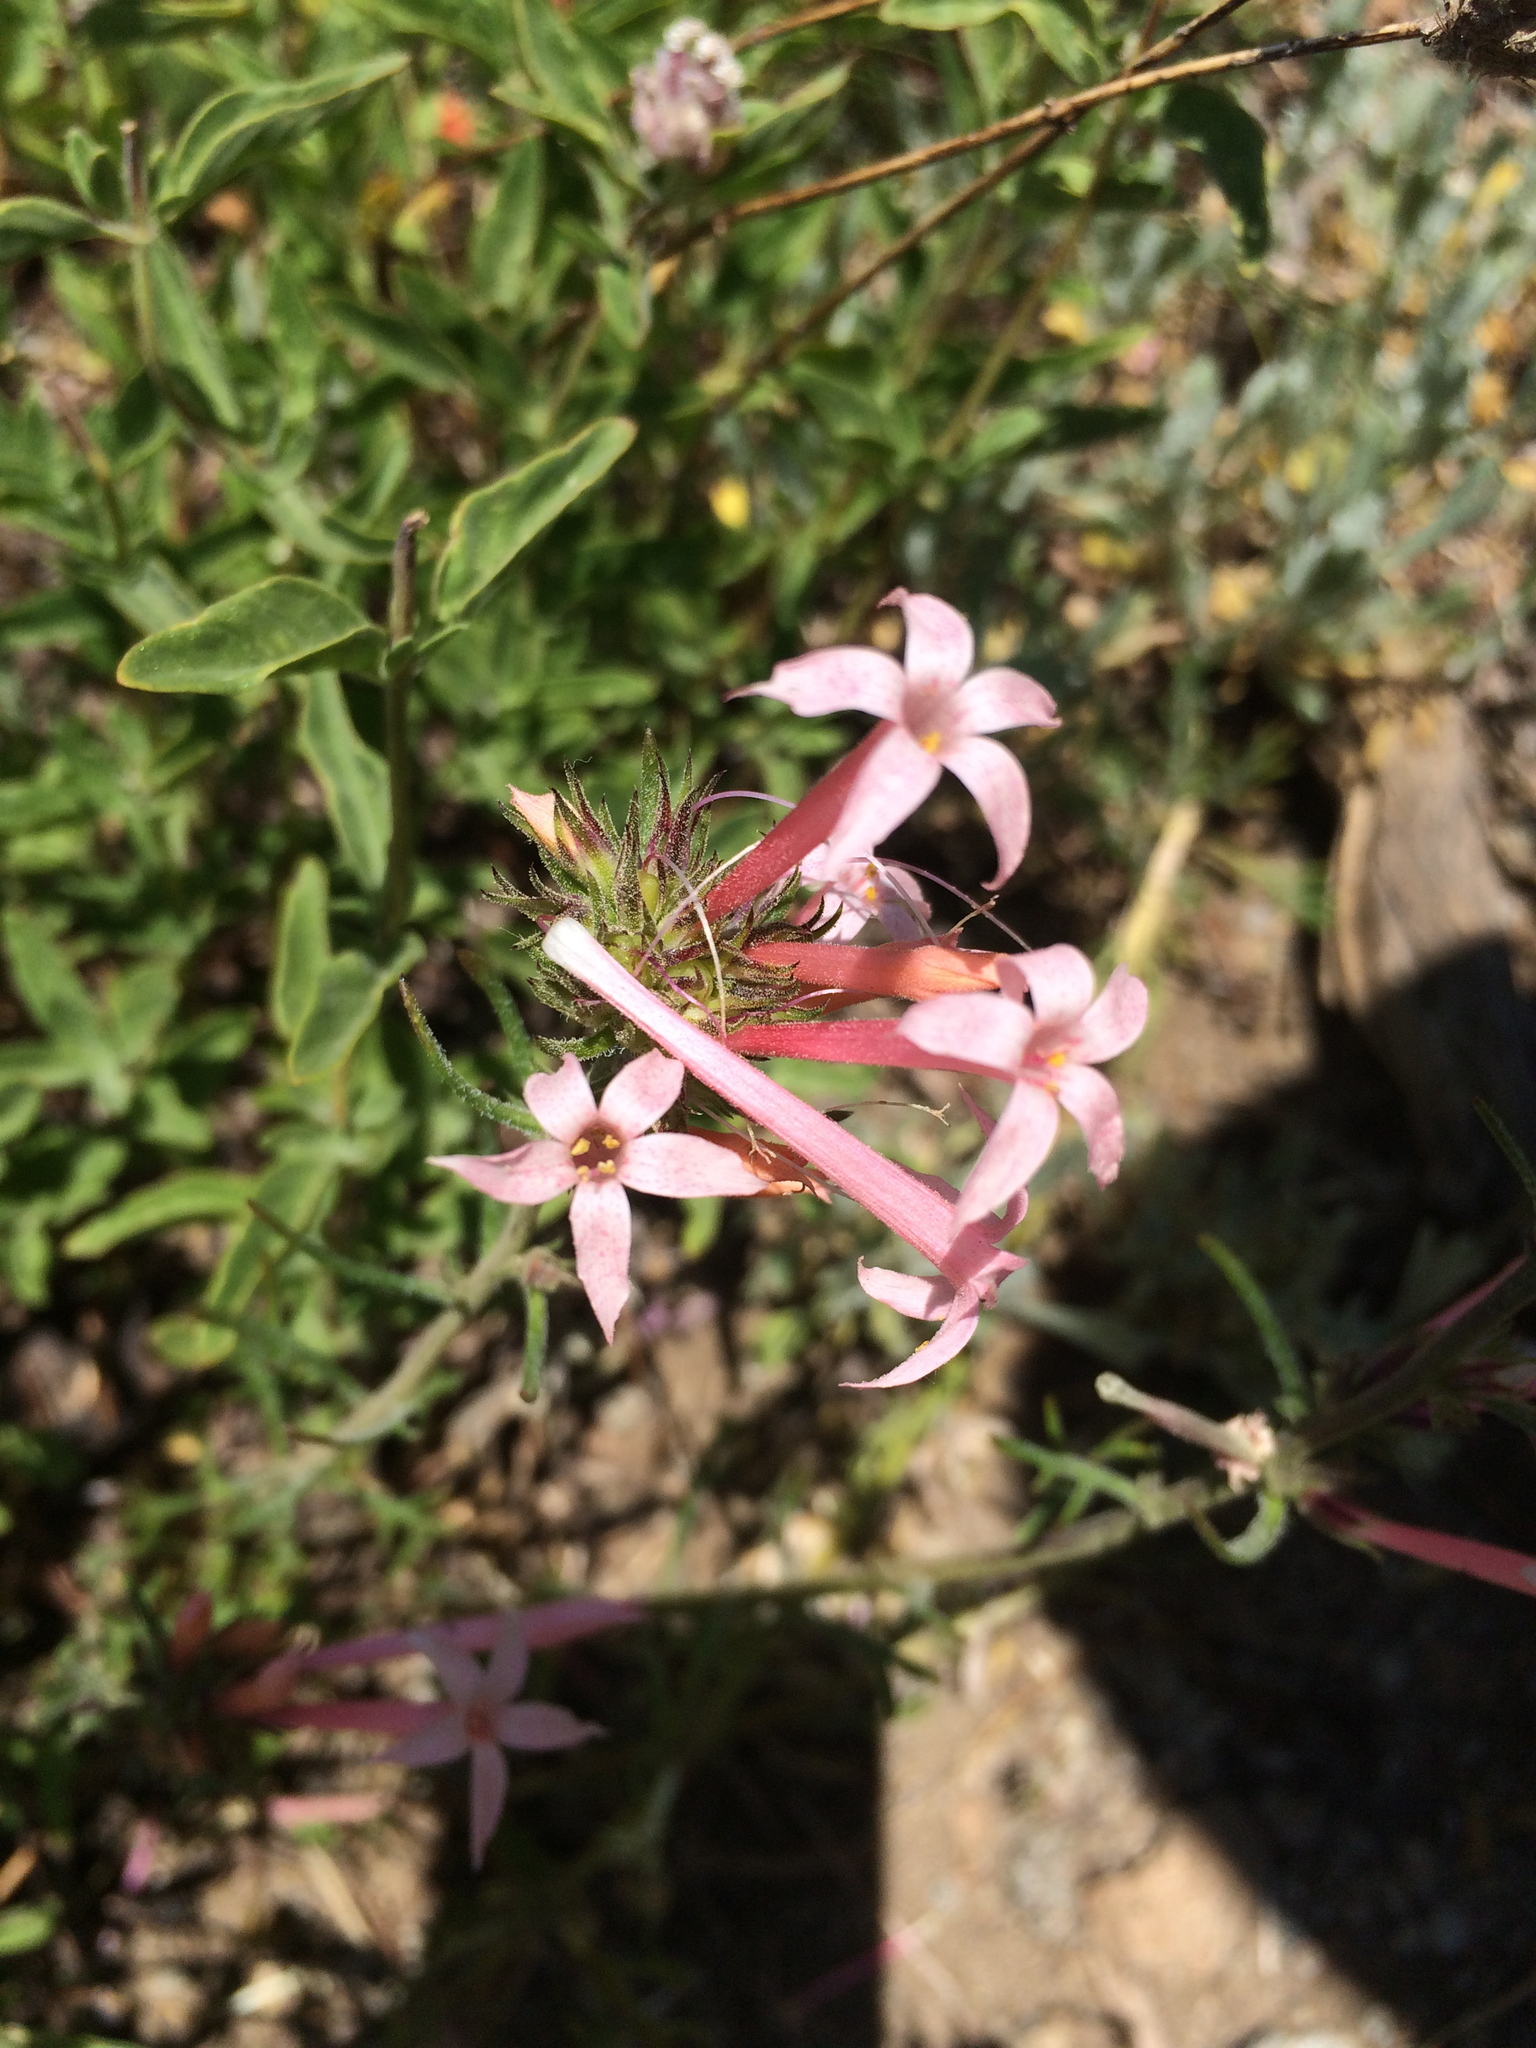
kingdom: Plantae
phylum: Tracheophyta
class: Magnoliopsida
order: Ericales
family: Polemoniaceae
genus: Ipomopsis
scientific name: Ipomopsis tenuituba
